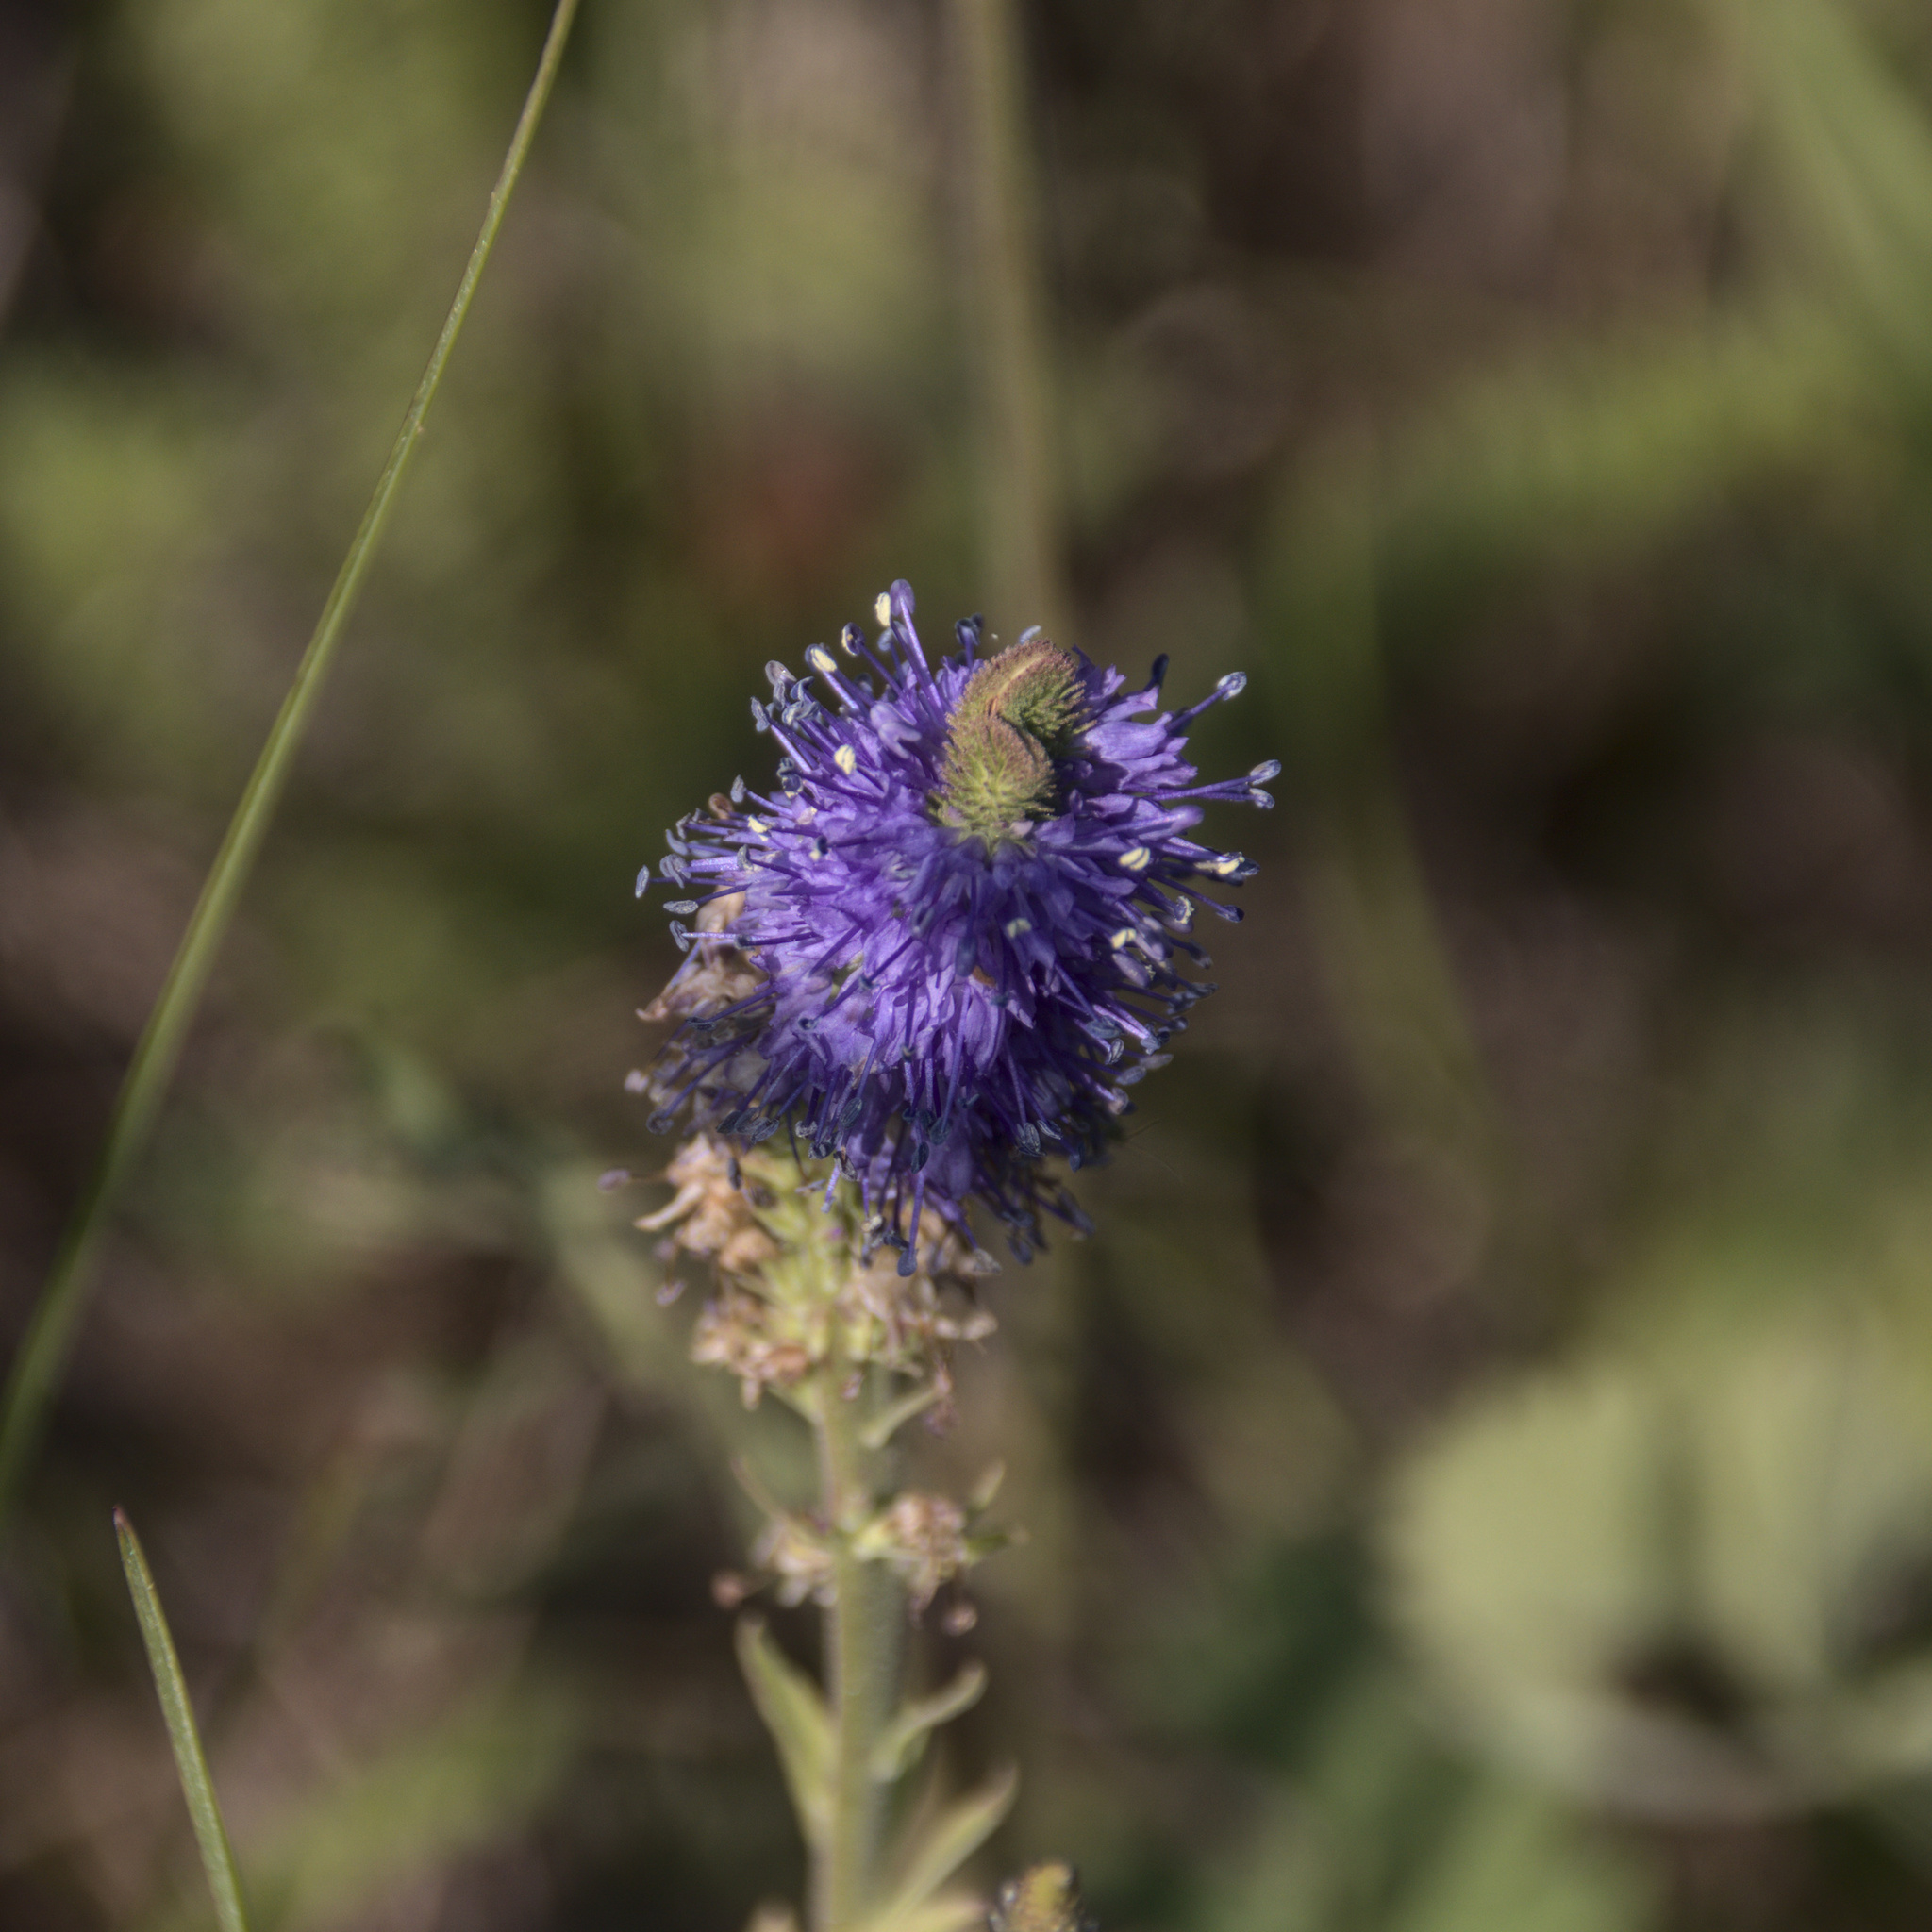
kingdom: Plantae
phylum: Tracheophyta
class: Magnoliopsida
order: Lamiales
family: Plantaginaceae
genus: Veronica
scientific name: Veronica spicata
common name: Spiked speedwell
